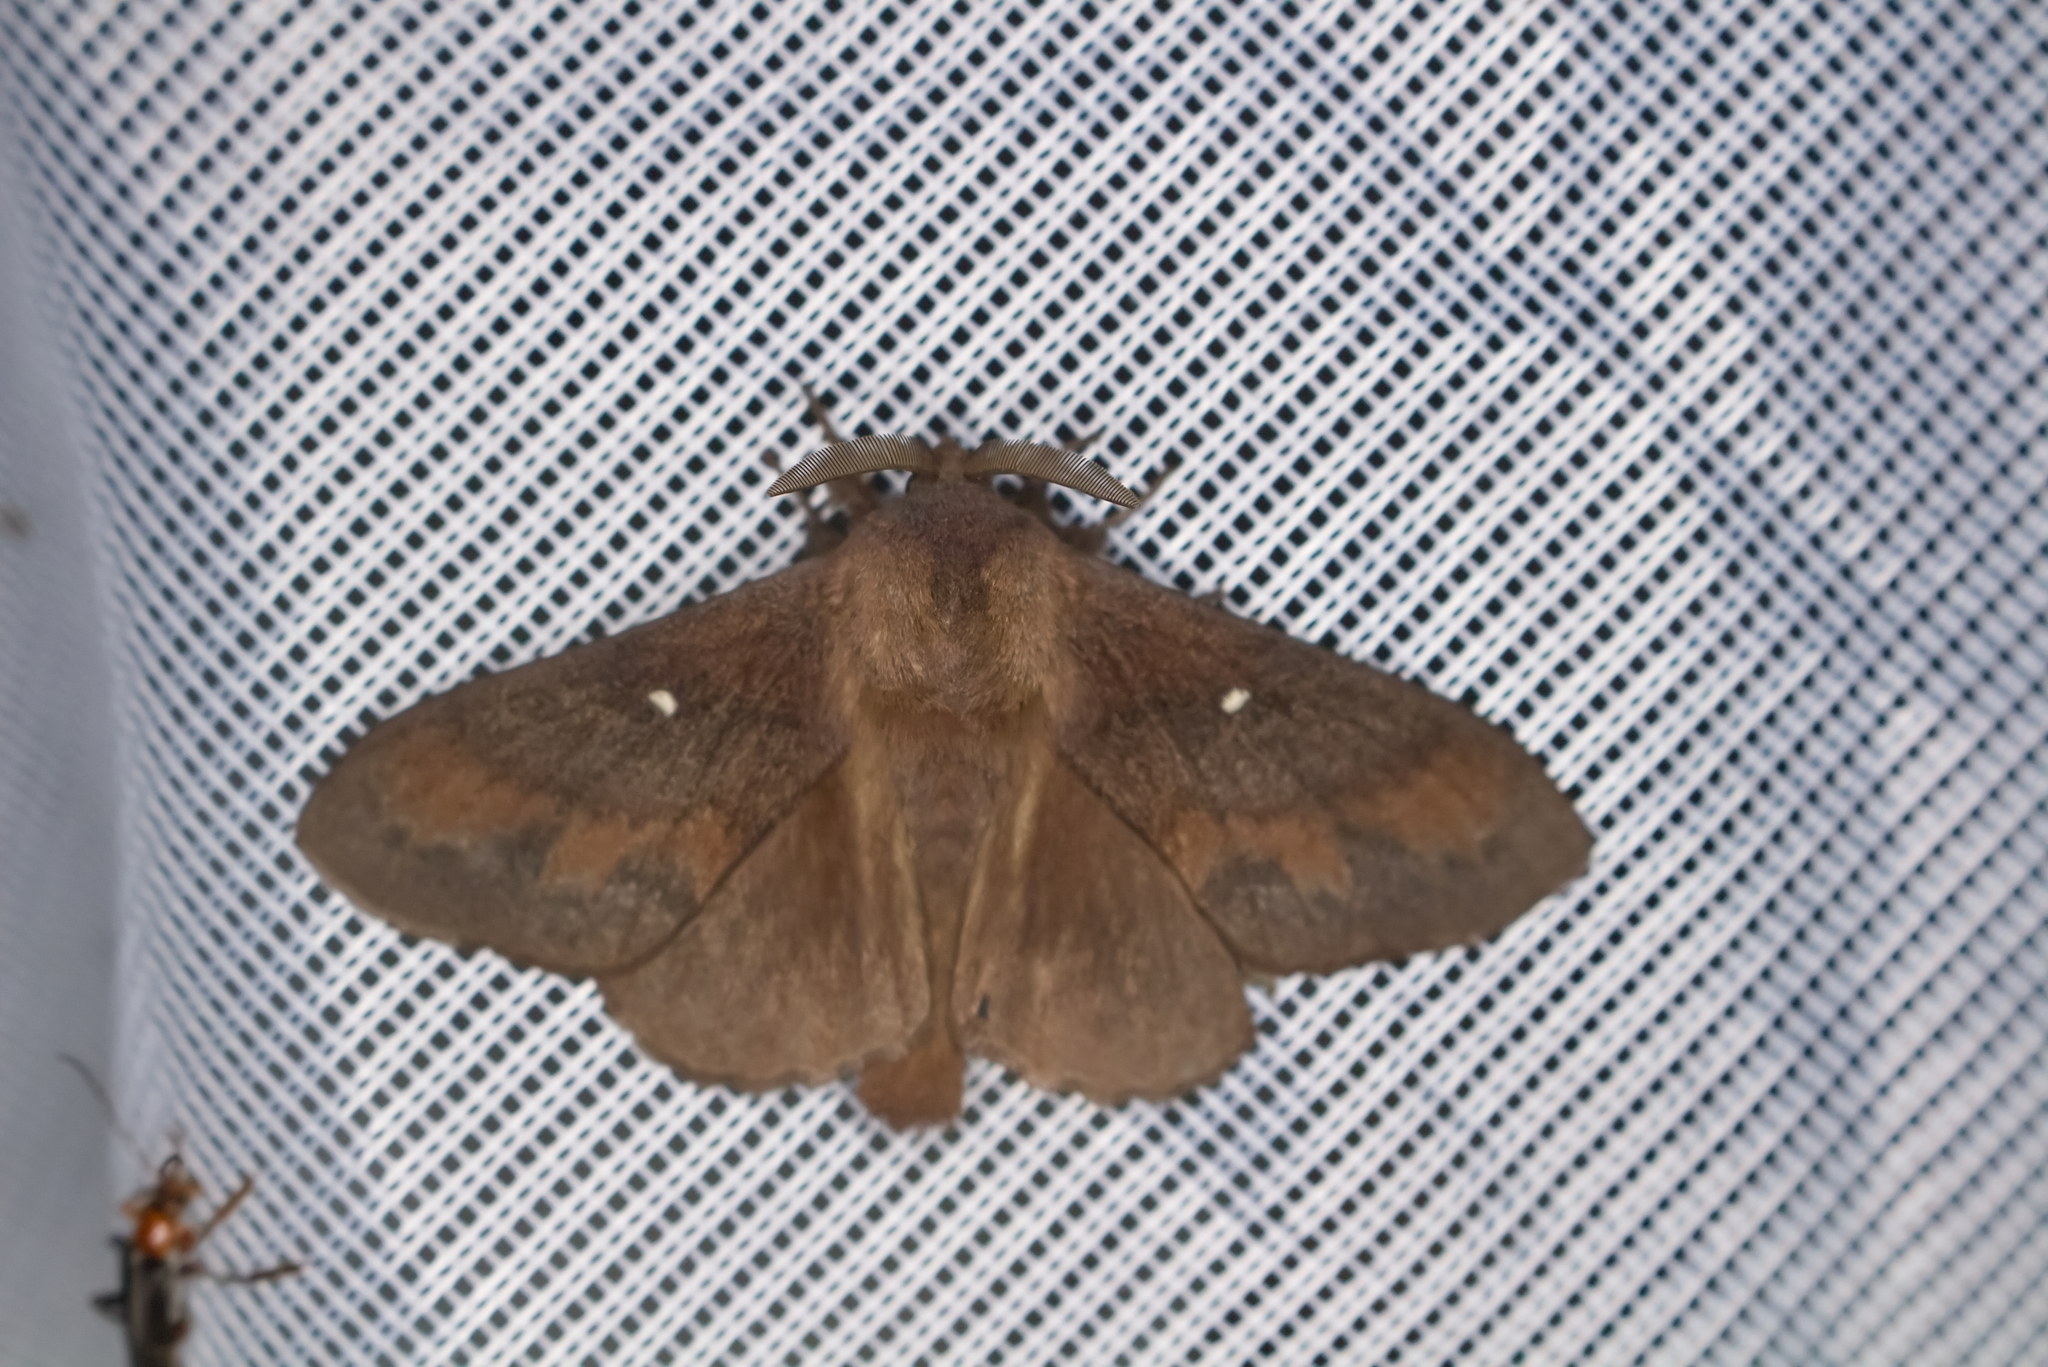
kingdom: Animalia
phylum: Arthropoda
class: Insecta
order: Lepidoptera
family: Lasiocampidae
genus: Dendrolimus
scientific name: Dendrolimus pini
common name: Pine-tree lappet
